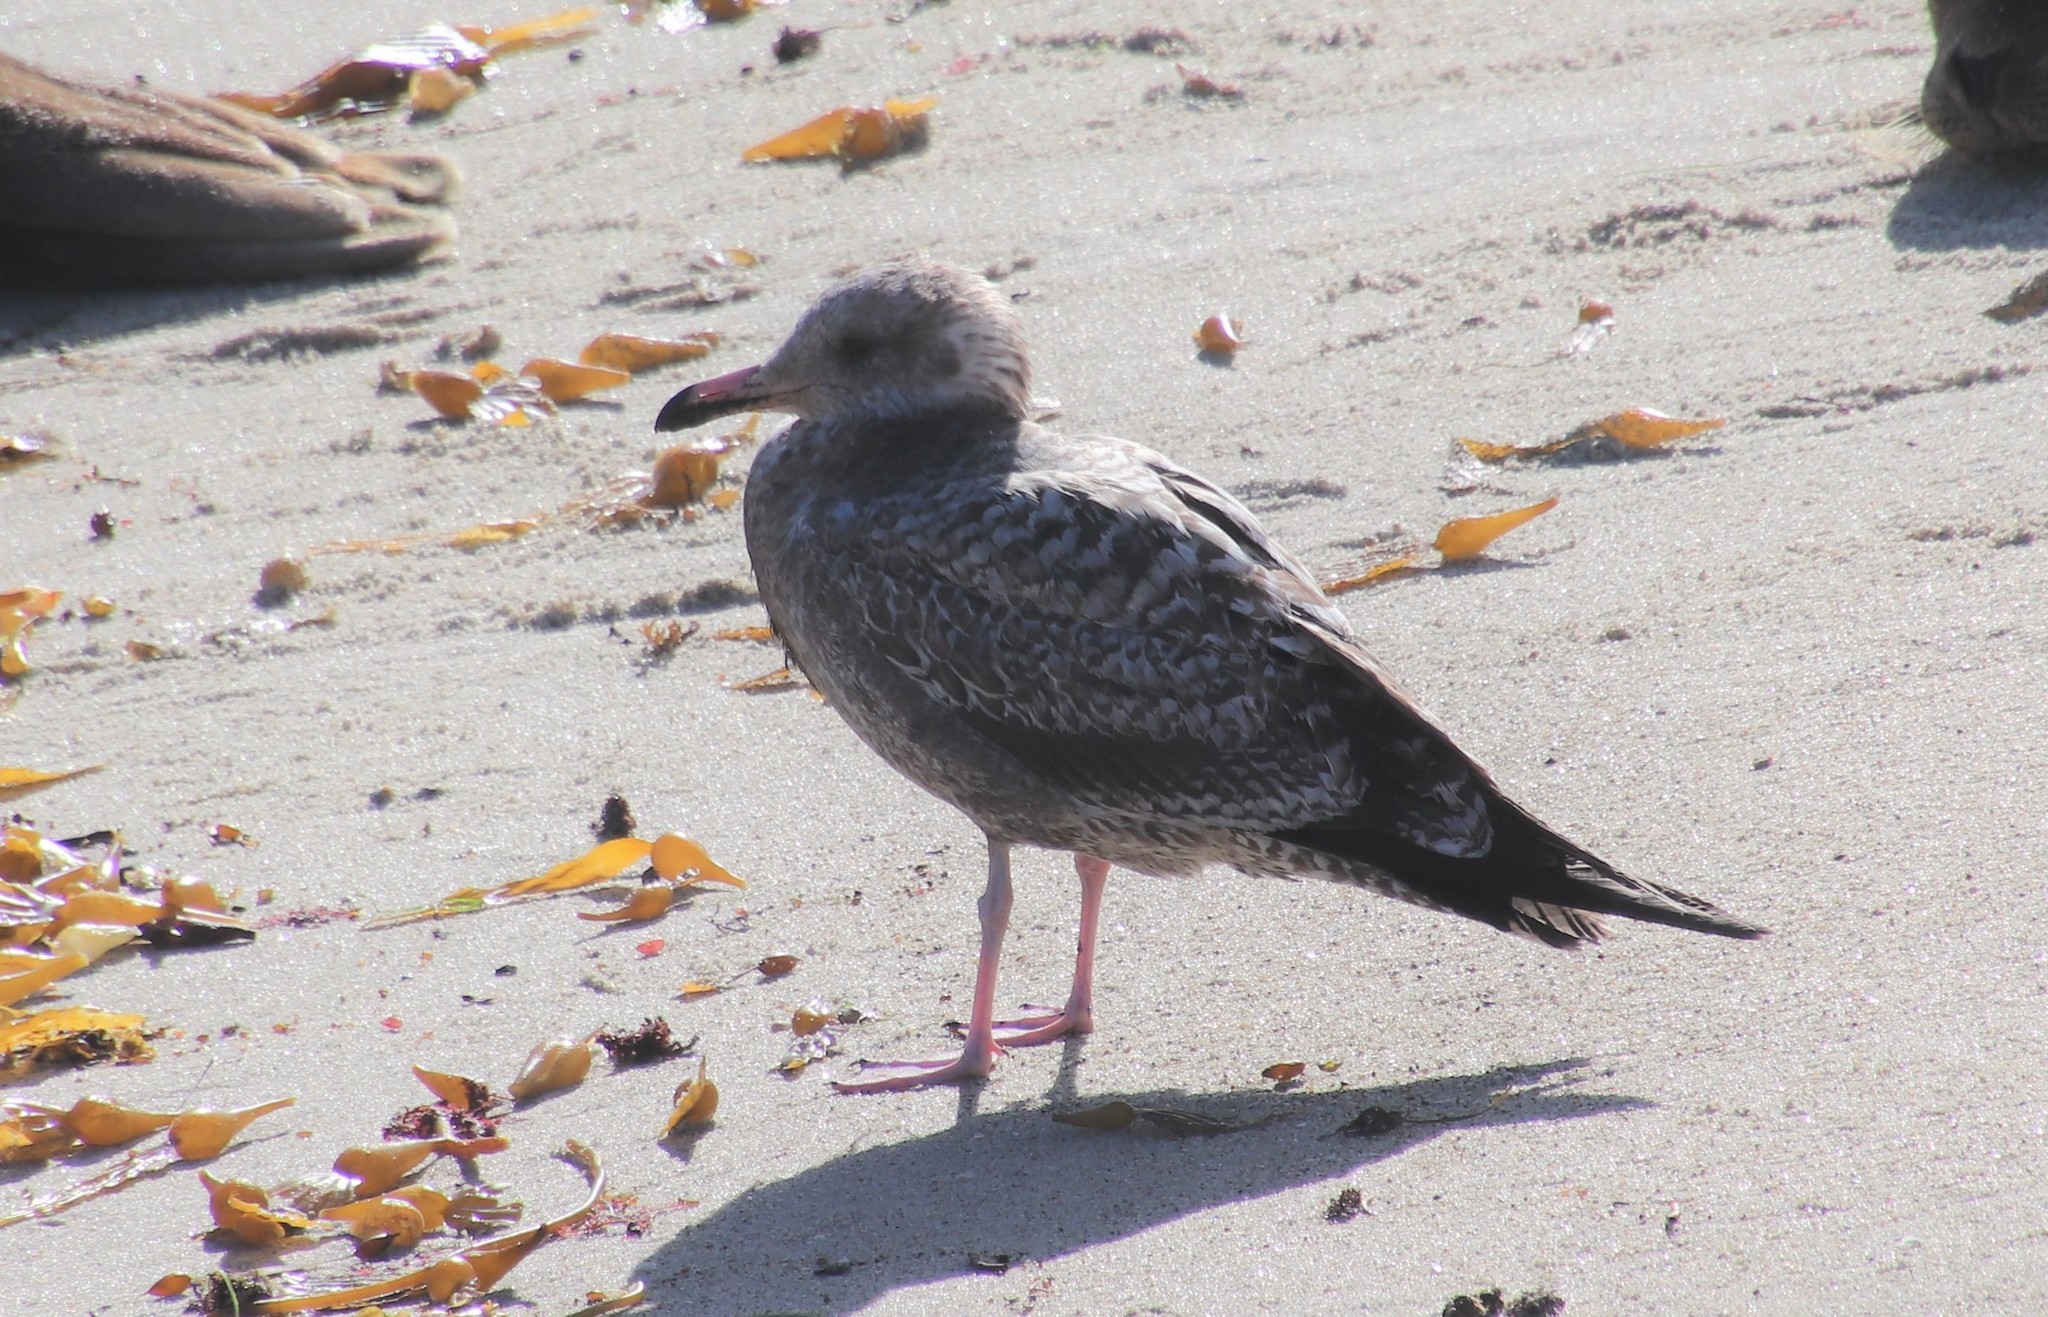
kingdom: Animalia
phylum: Chordata
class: Aves
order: Charadriiformes
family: Laridae
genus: Larus
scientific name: Larus californicus
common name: California gull
